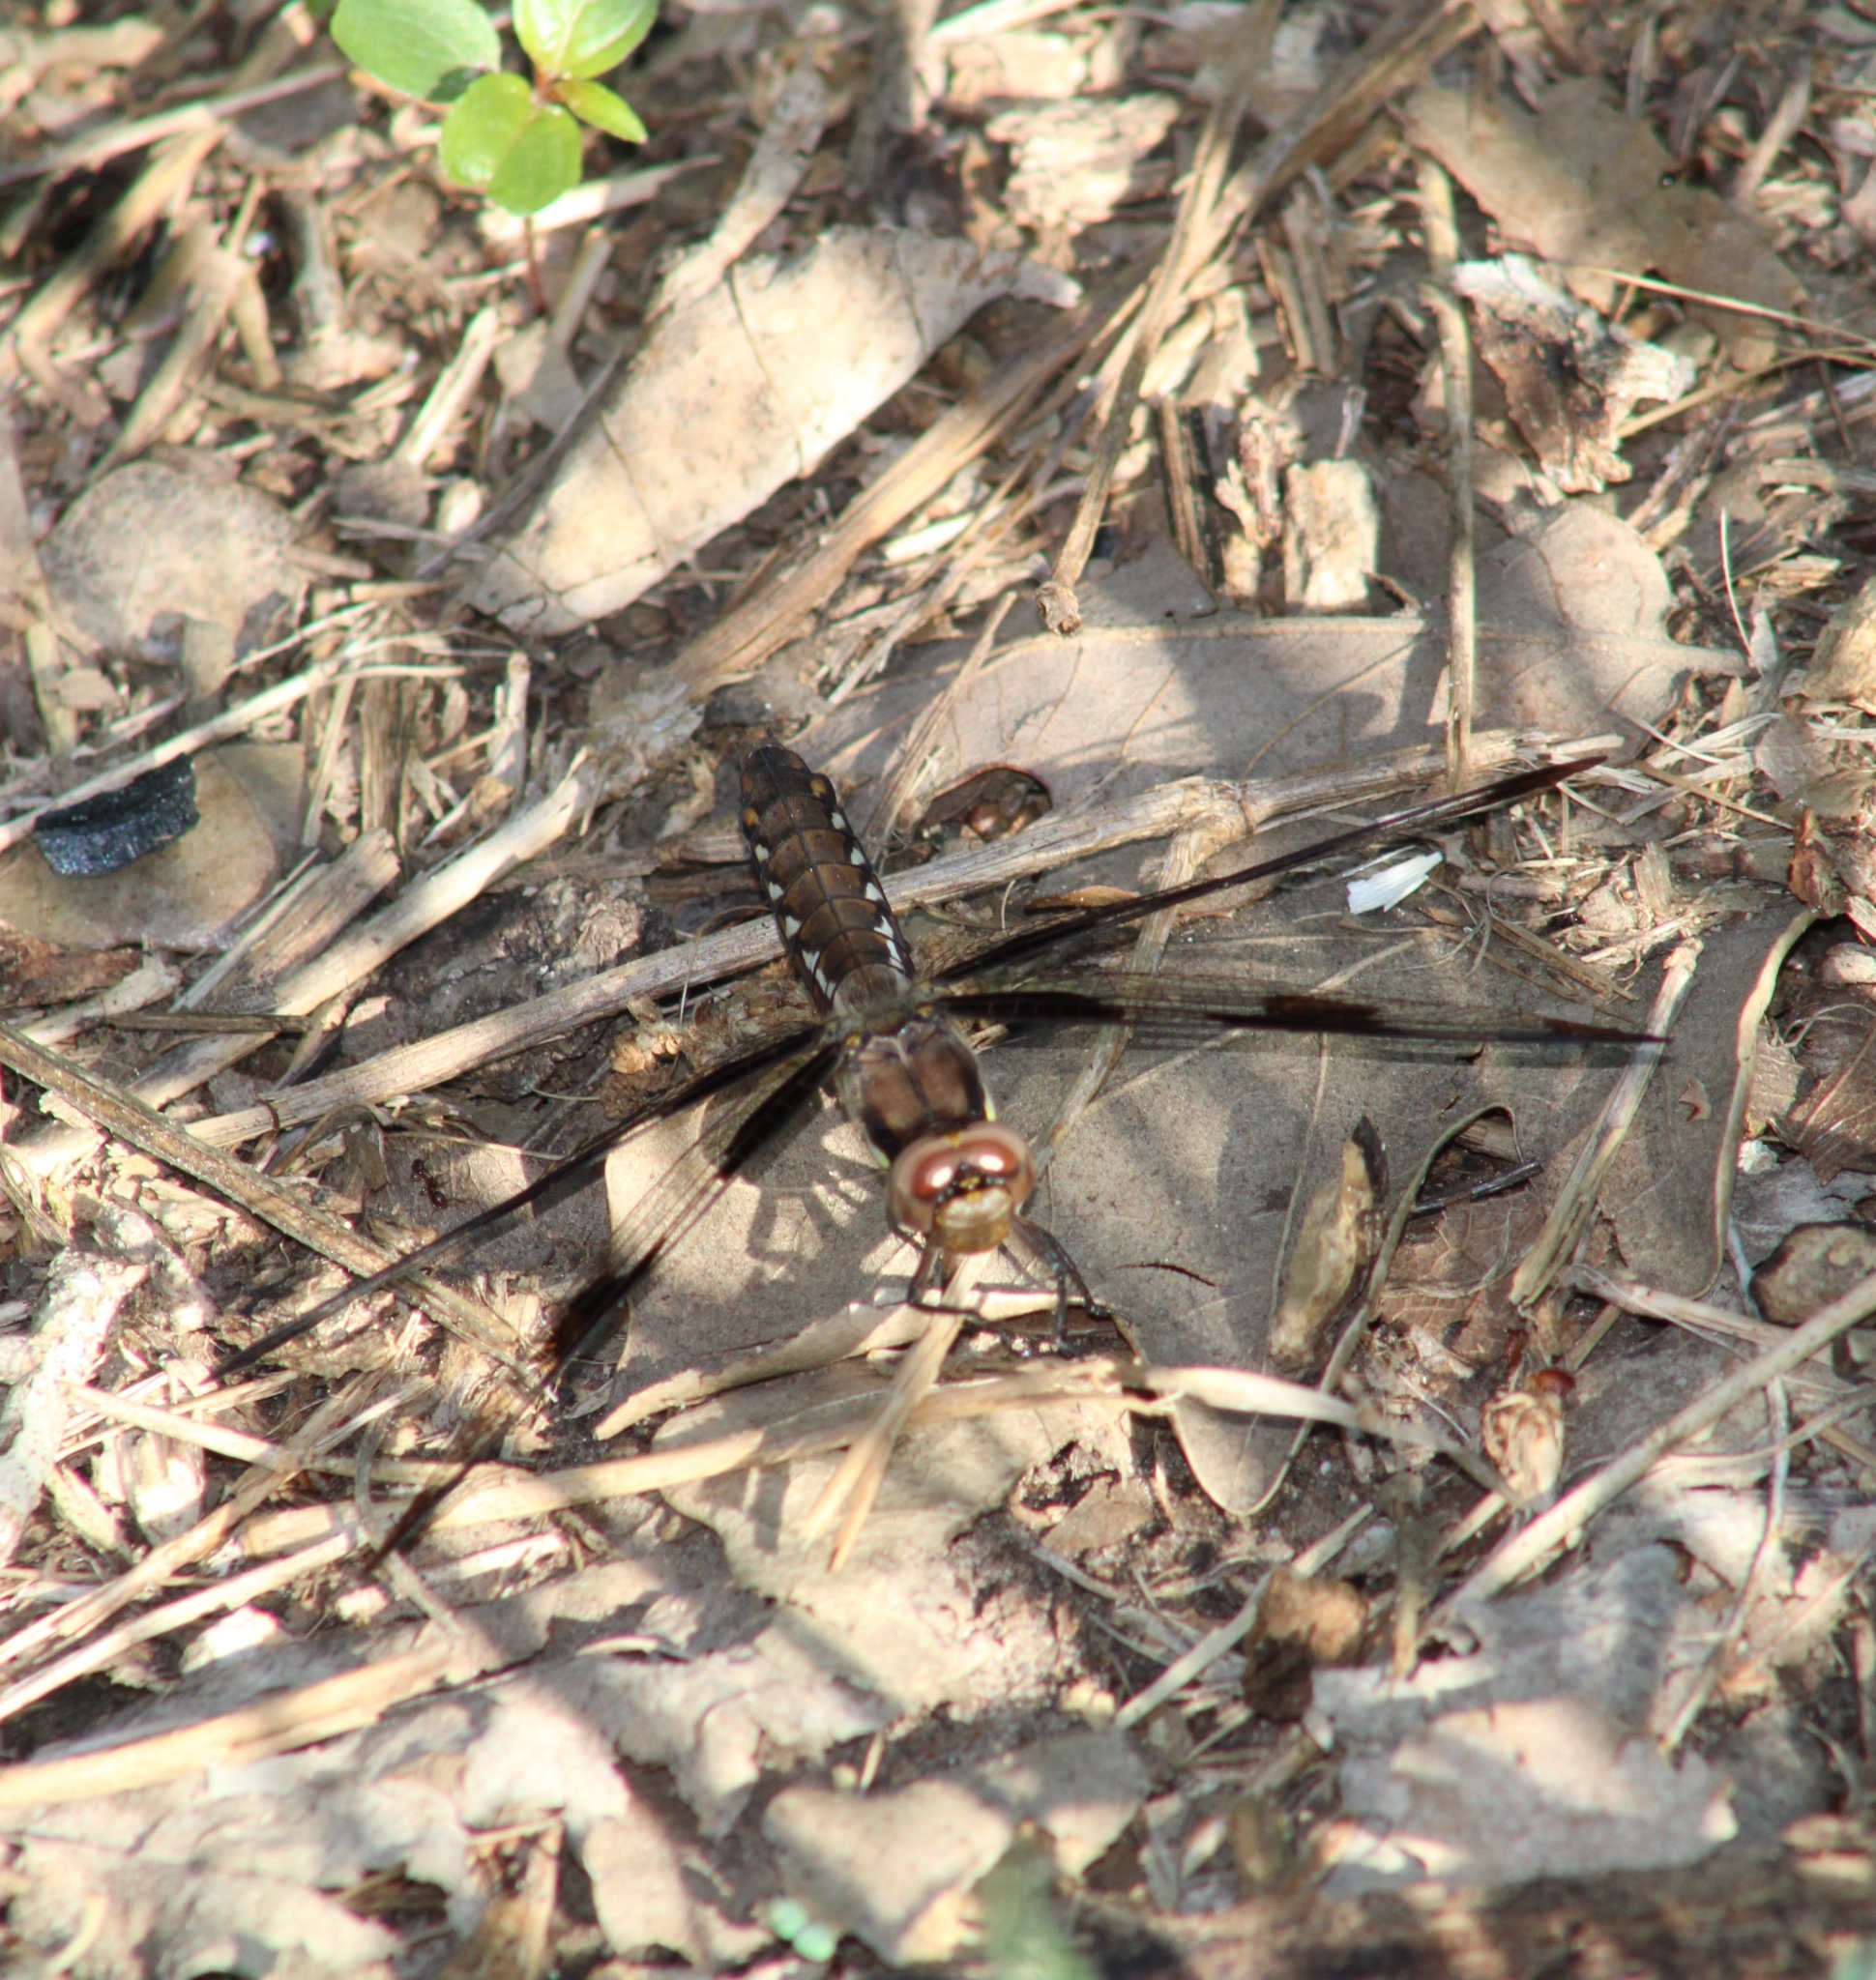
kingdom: Animalia
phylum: Arthropoda
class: Insecta
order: Odonata
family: Libellulidae
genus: Plathemis
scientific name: Plathemis lydia
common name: Common whitetail
